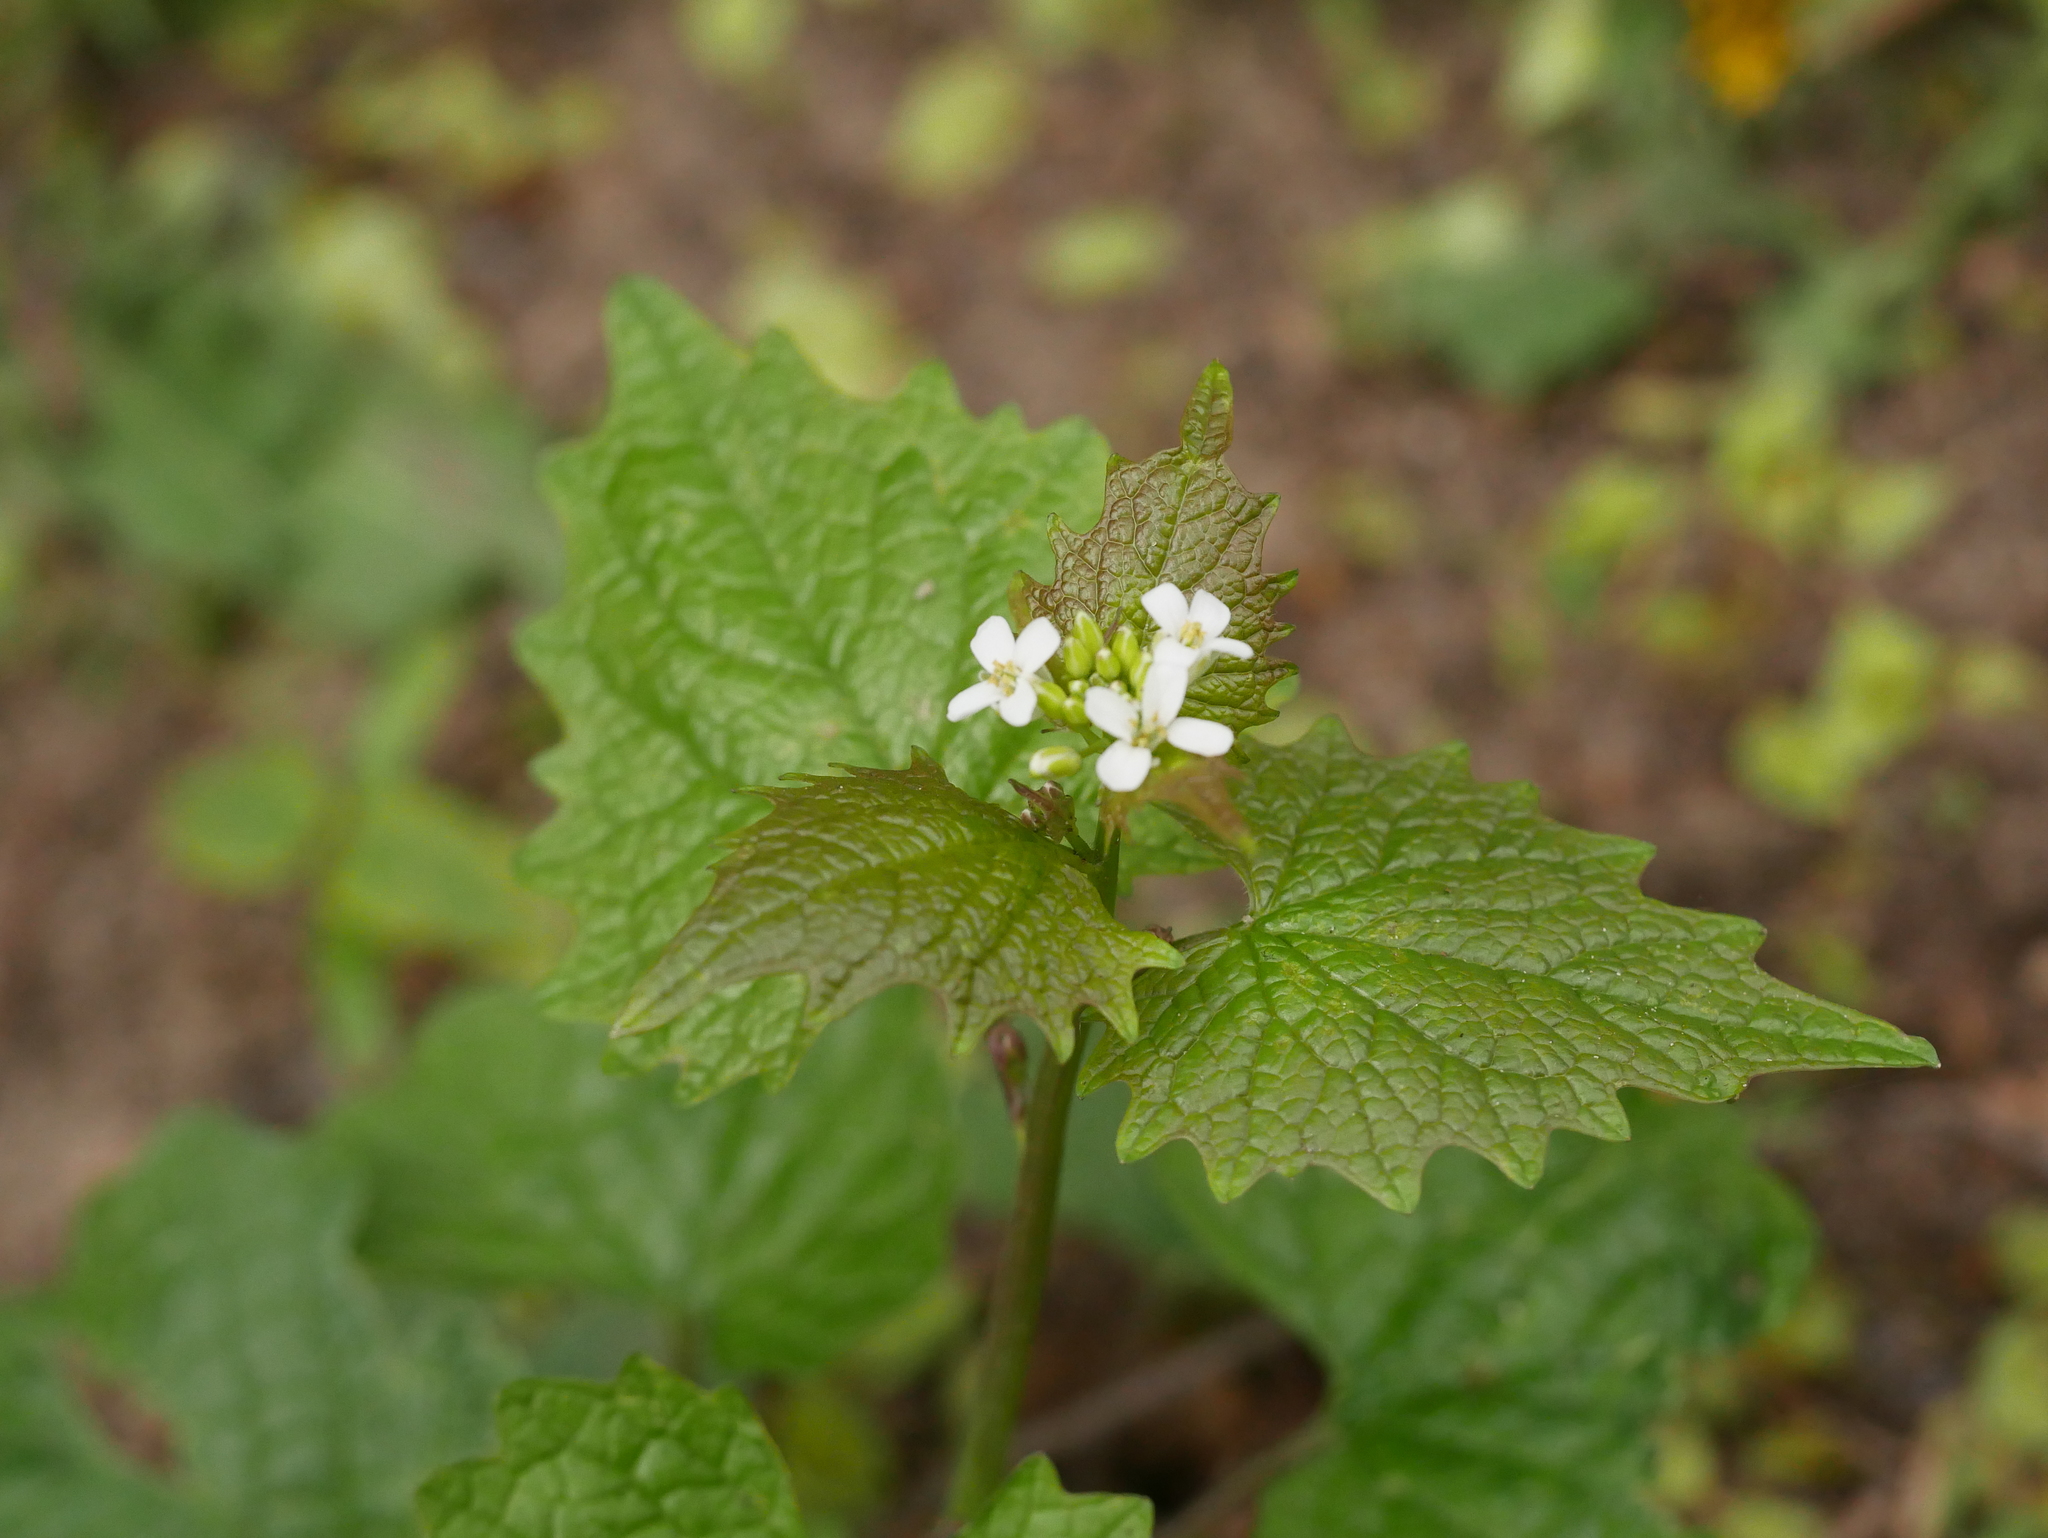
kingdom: Plantae
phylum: Tracheophyta
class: Magnoliopsida
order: Brassicales
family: Brassicaceae
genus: Alliaria
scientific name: Alliaria petiolata
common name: Garlic mustard
